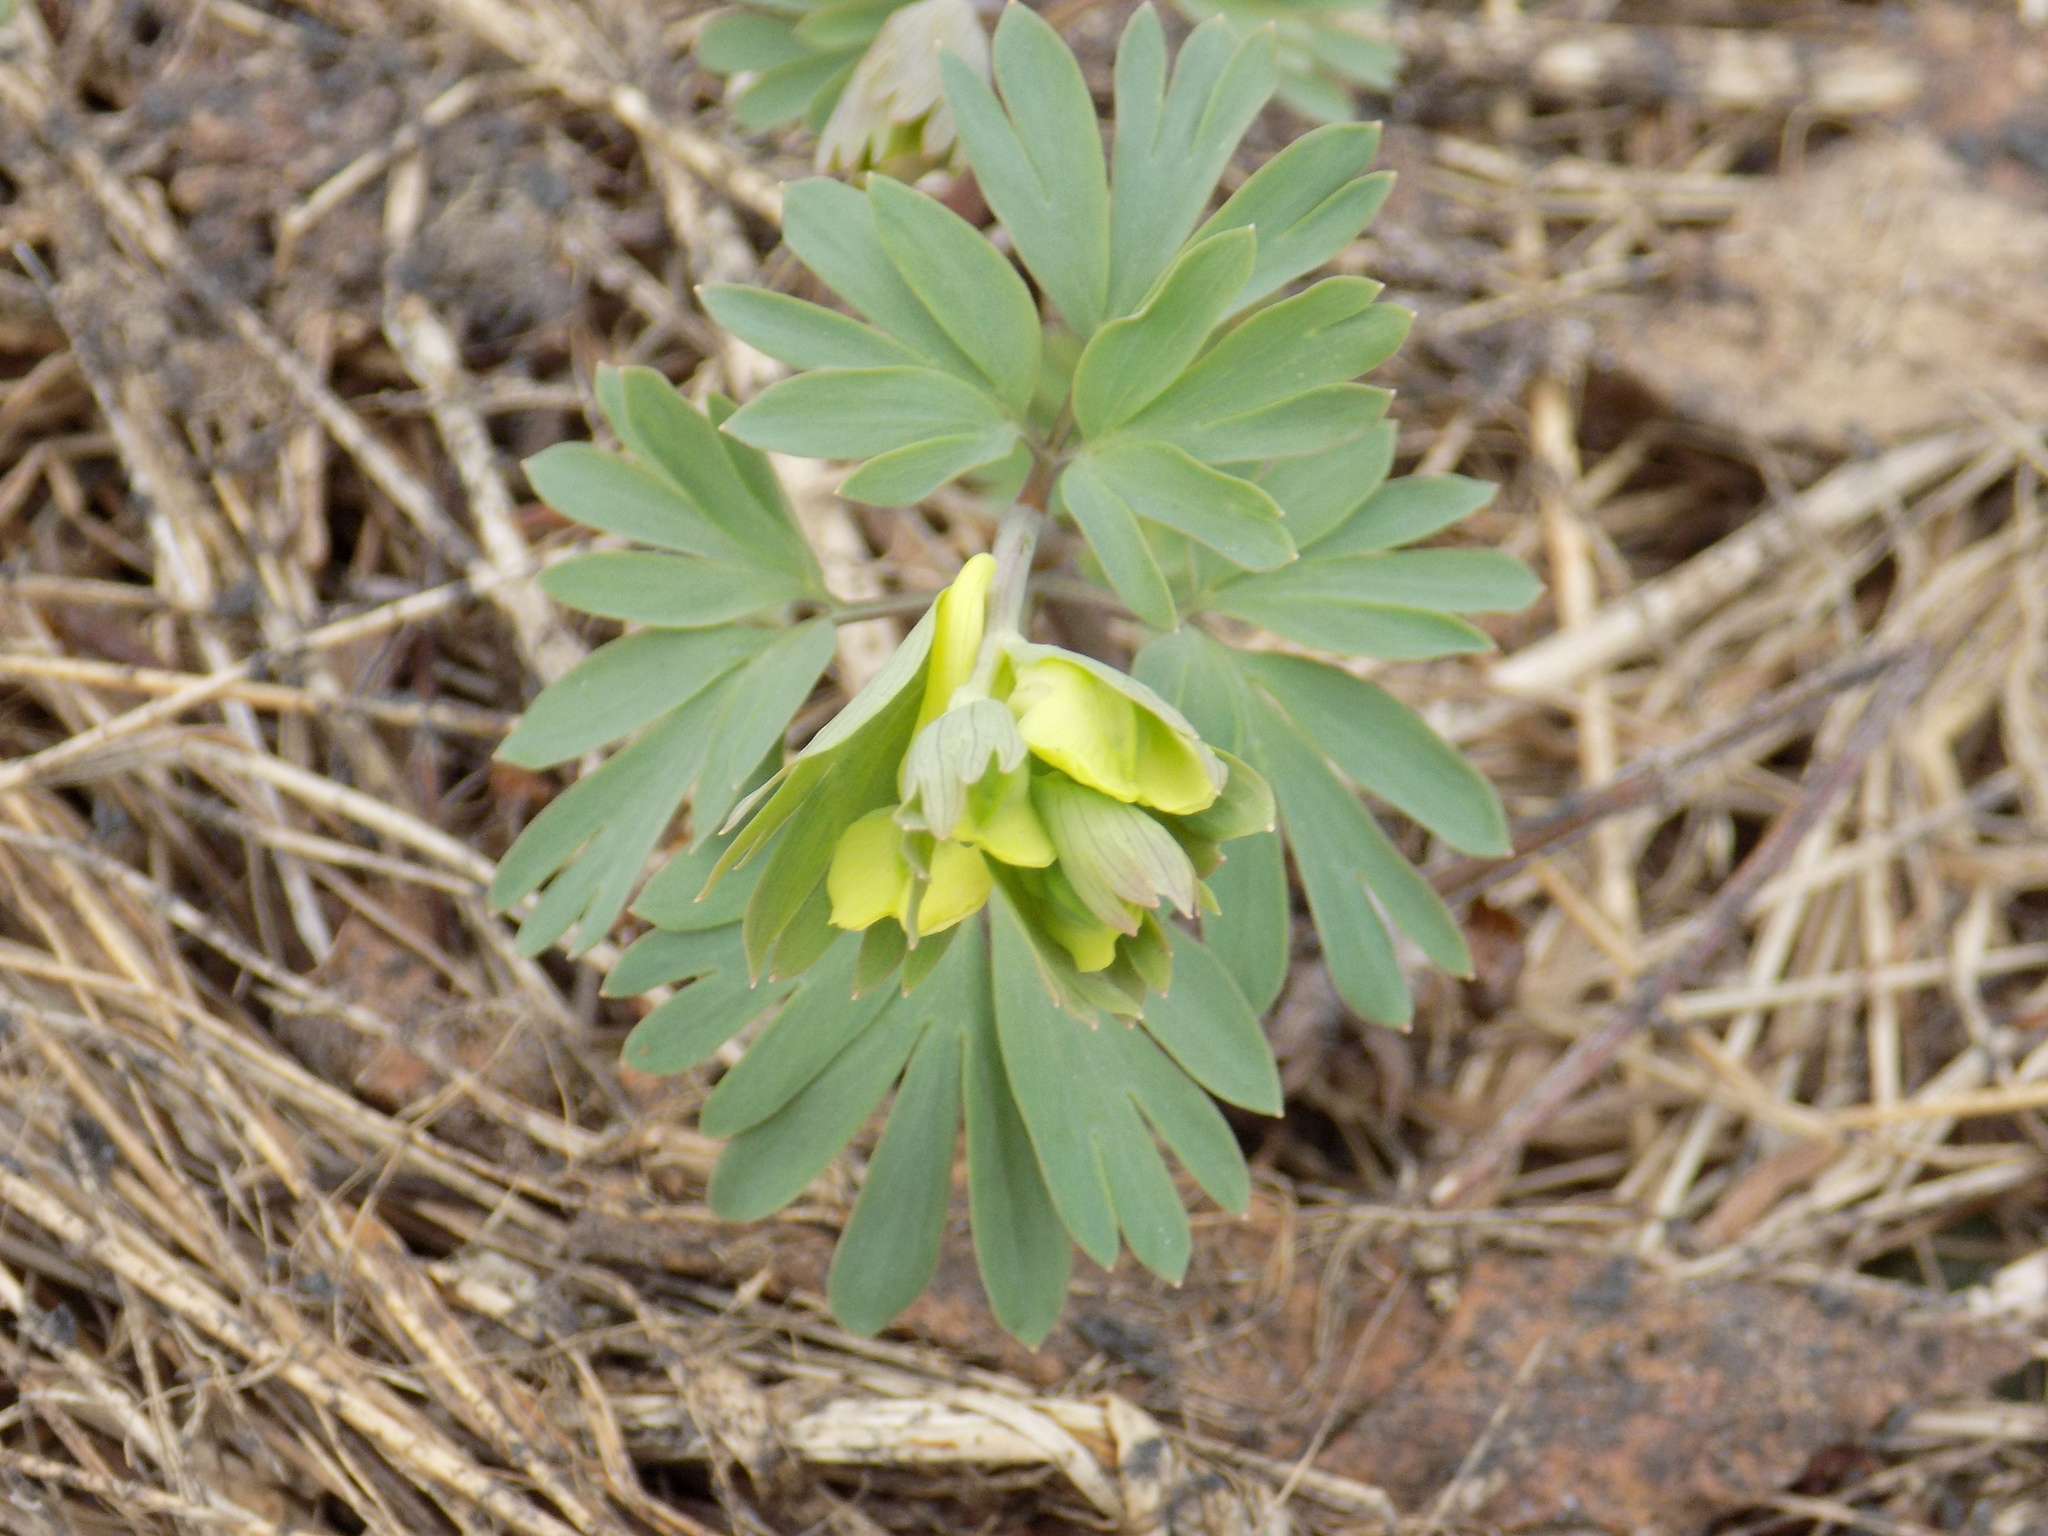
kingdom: Plantae
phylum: Tracheophyta
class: Magnoliopsida
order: Ranunculales
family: Papaveraceae
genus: Corydalis
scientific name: Corydalis bracteata
